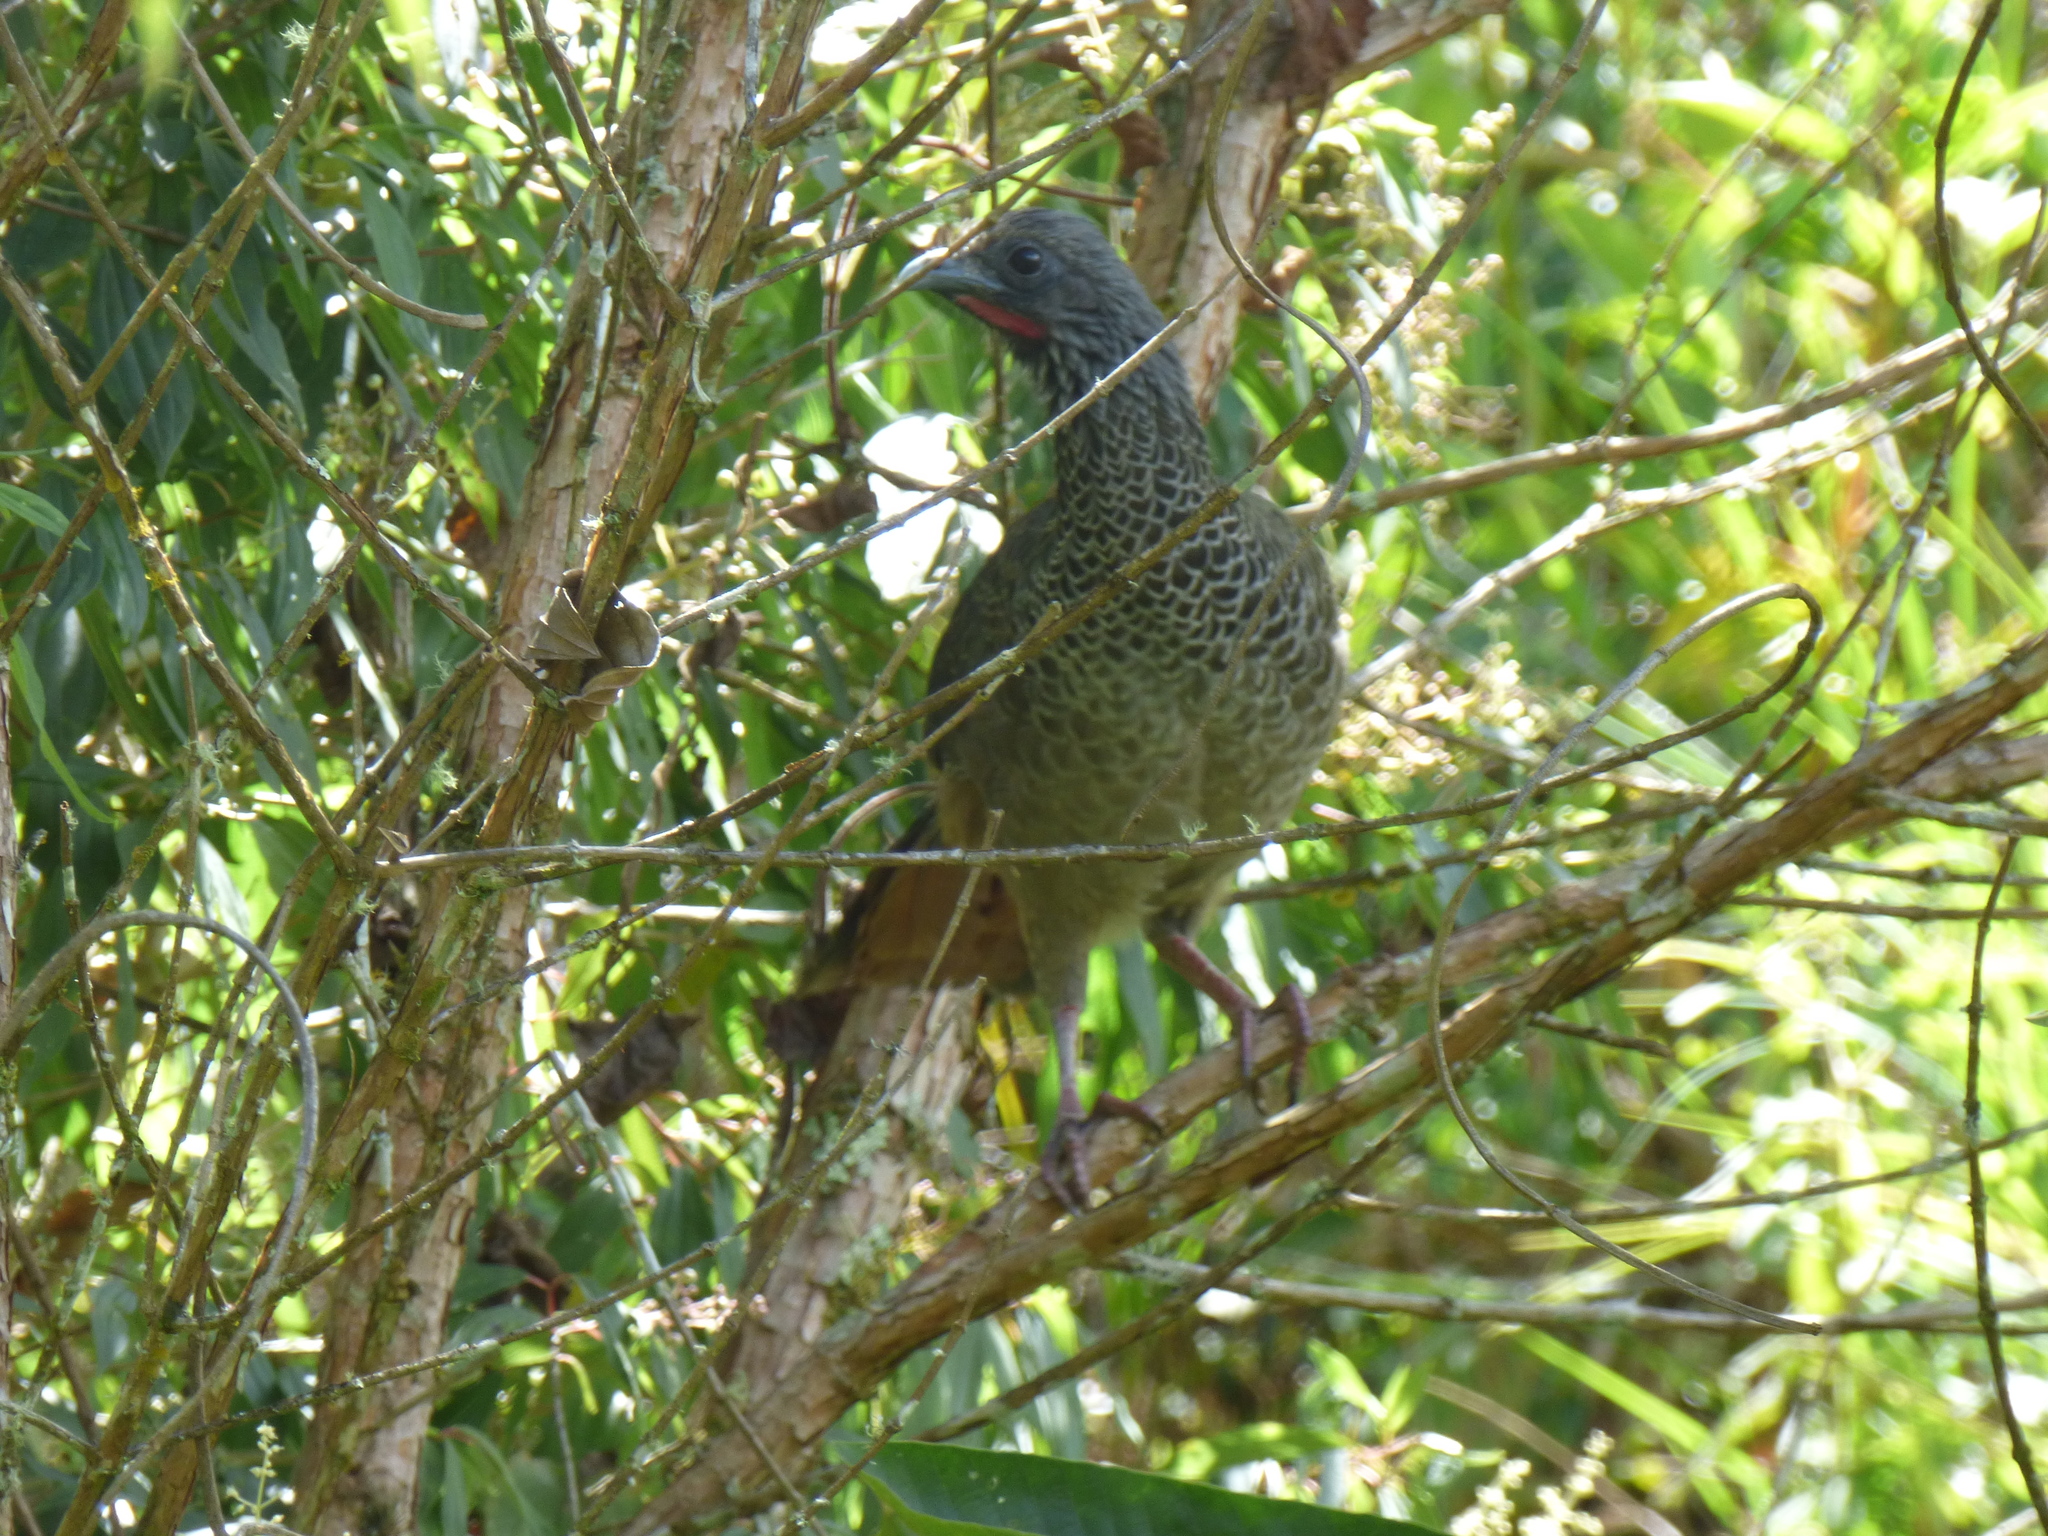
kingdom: Animalia
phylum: Chordata
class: Aves
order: Galliformes
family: Cracidae
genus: Ortalis
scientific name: Ortalis columbiana
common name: Colombian chachalaca
